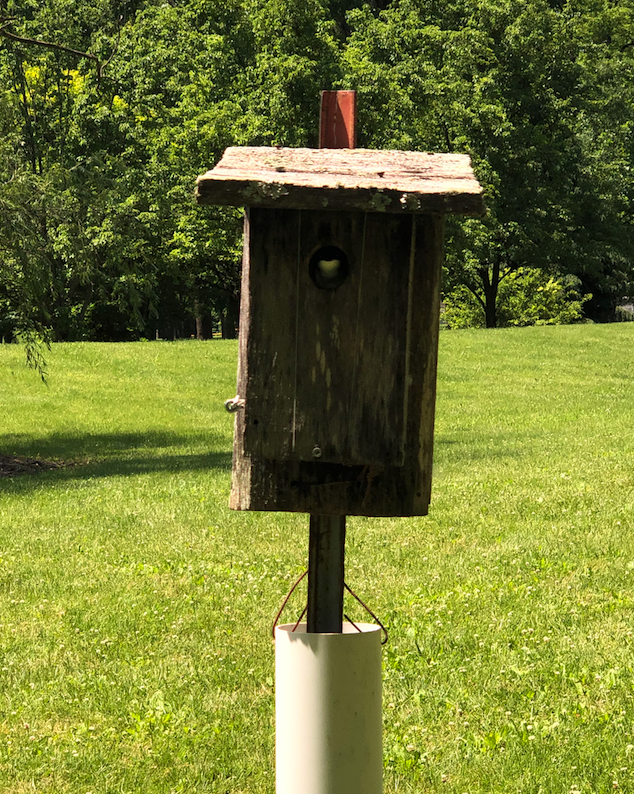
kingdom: Animalia
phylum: Chordata
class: Aves
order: Passeriformes
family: Hirundinidae
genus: Tachycineta
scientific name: Tachycineta bicolor
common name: Tree swallow
